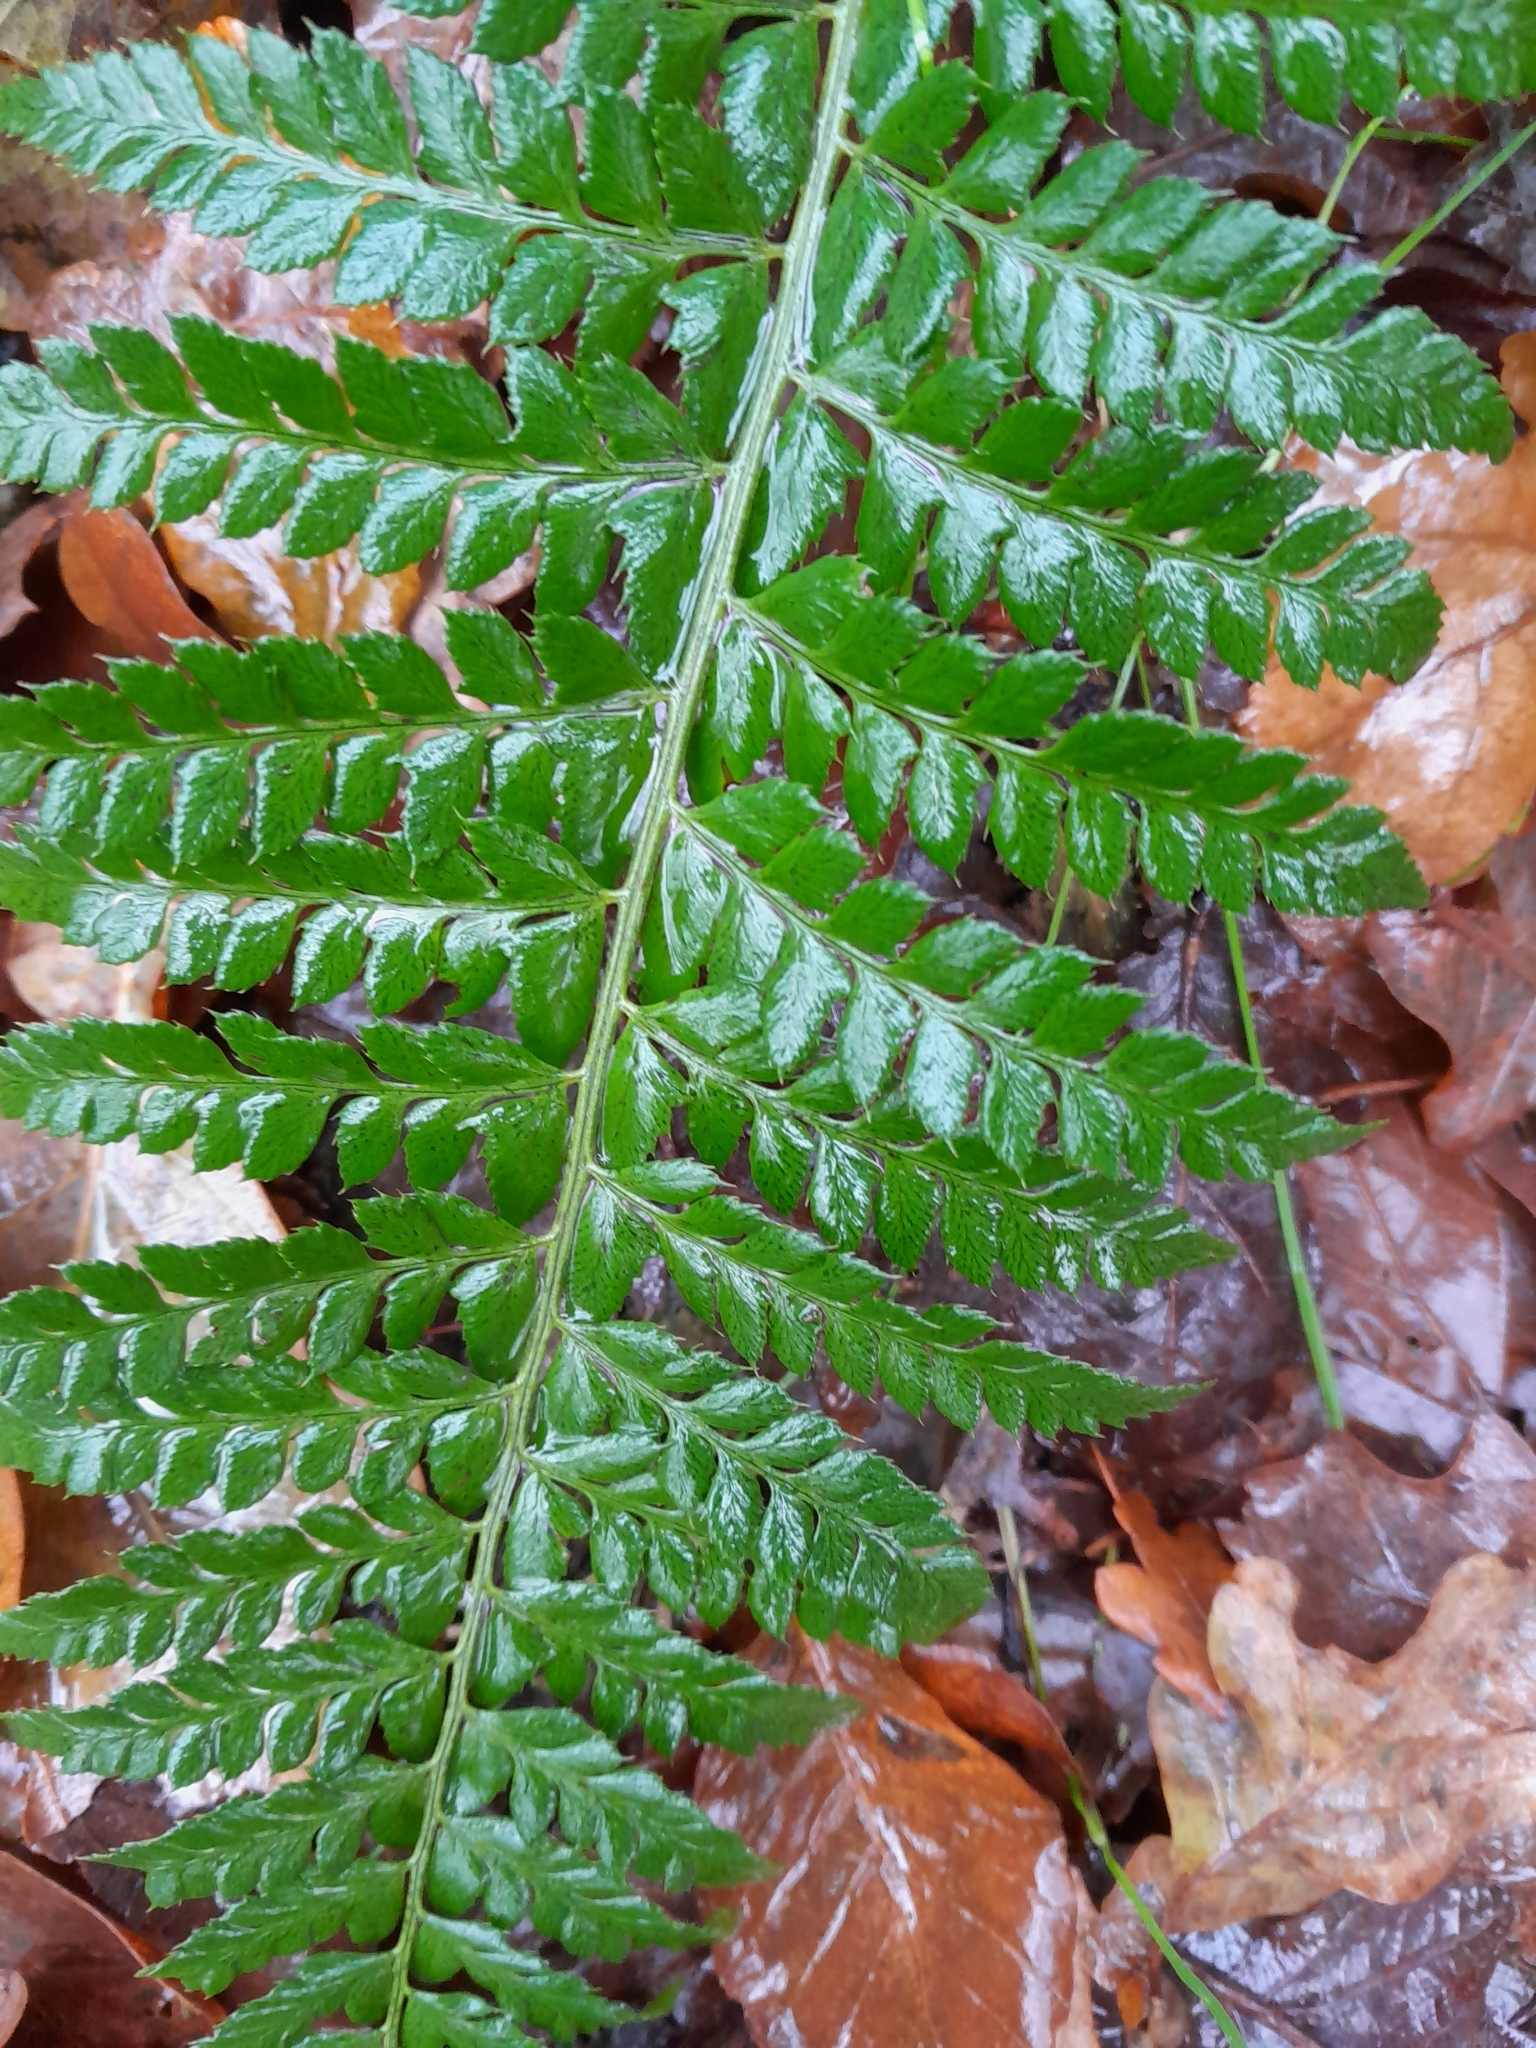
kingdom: Plantae
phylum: Tracheophyta
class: Polypodiopsida
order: Polypodiales
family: Dryopteridaceae
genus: Polystichum
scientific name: Polystichum aculeatum
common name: Hard shield-fern
